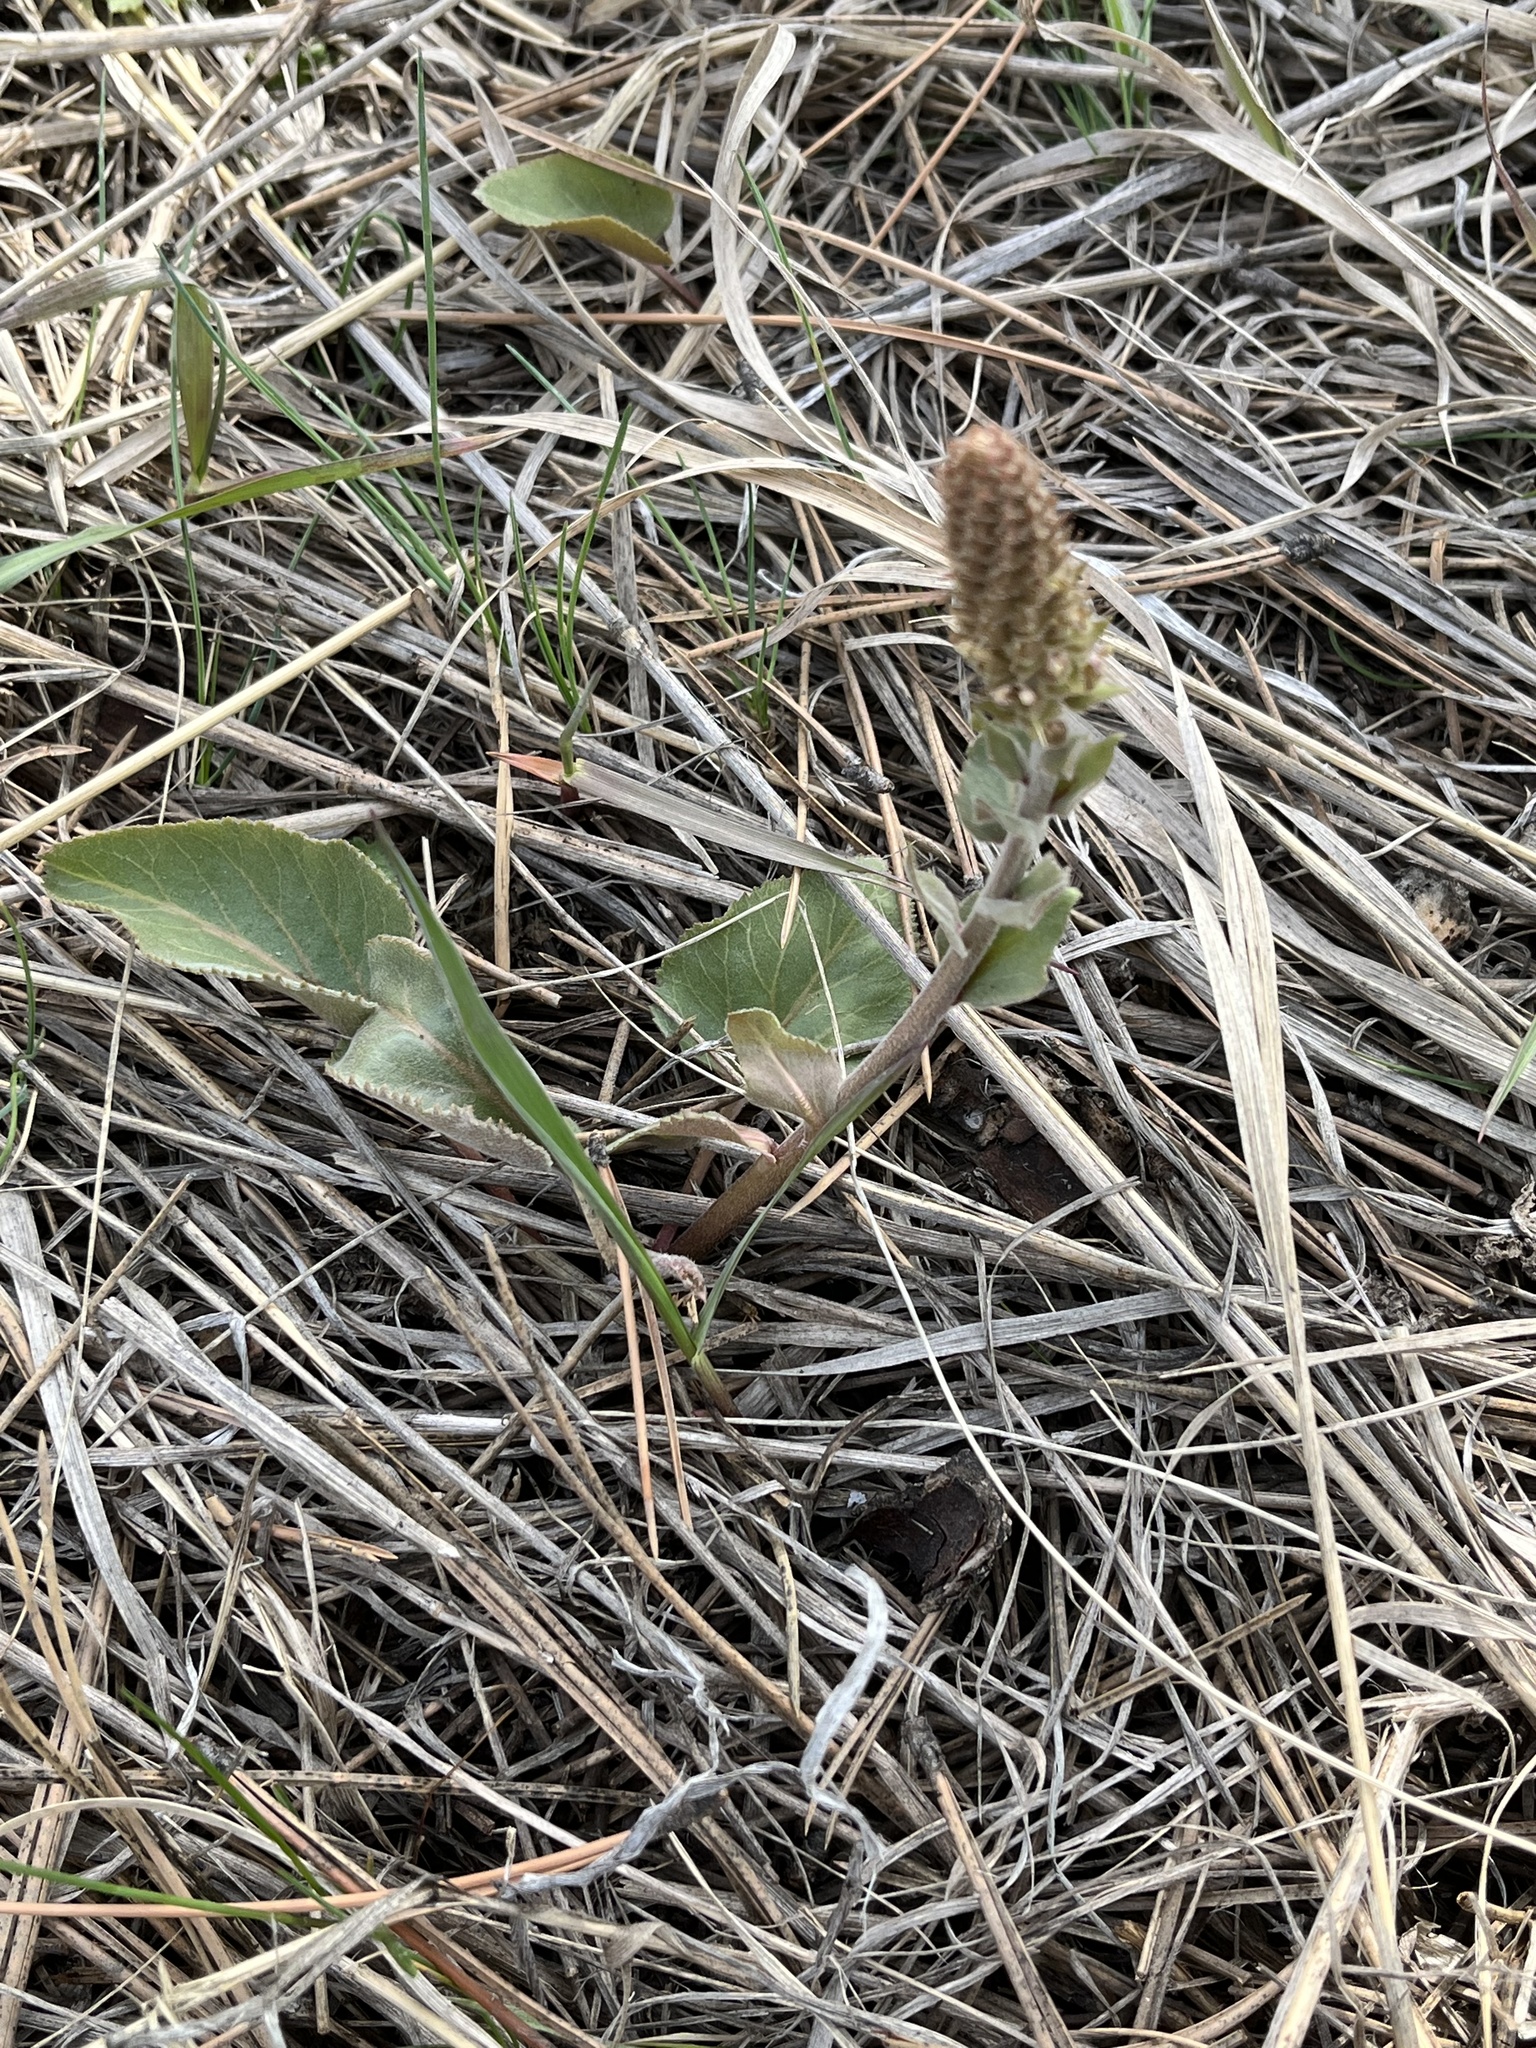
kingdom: Plantae
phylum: Tracheophyta
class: Magnoliopsida
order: Lamiales
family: Plantaginaceae
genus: Synthyris
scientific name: Synthyris wyomingensis
